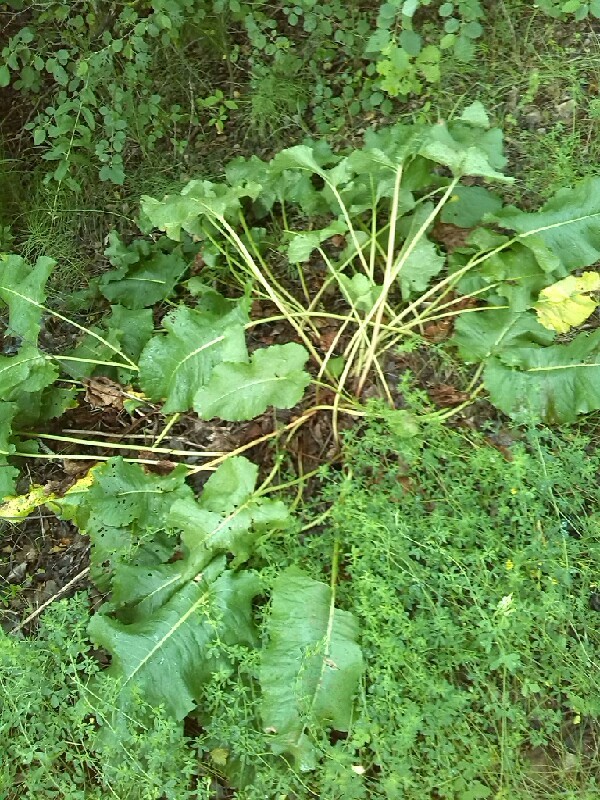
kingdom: Plantae
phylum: Tracheophyta
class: Magnoliopsida
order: Caryophyllales
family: Polygonaceae
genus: Rumex
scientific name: Rumex confertus
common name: Russian dock
